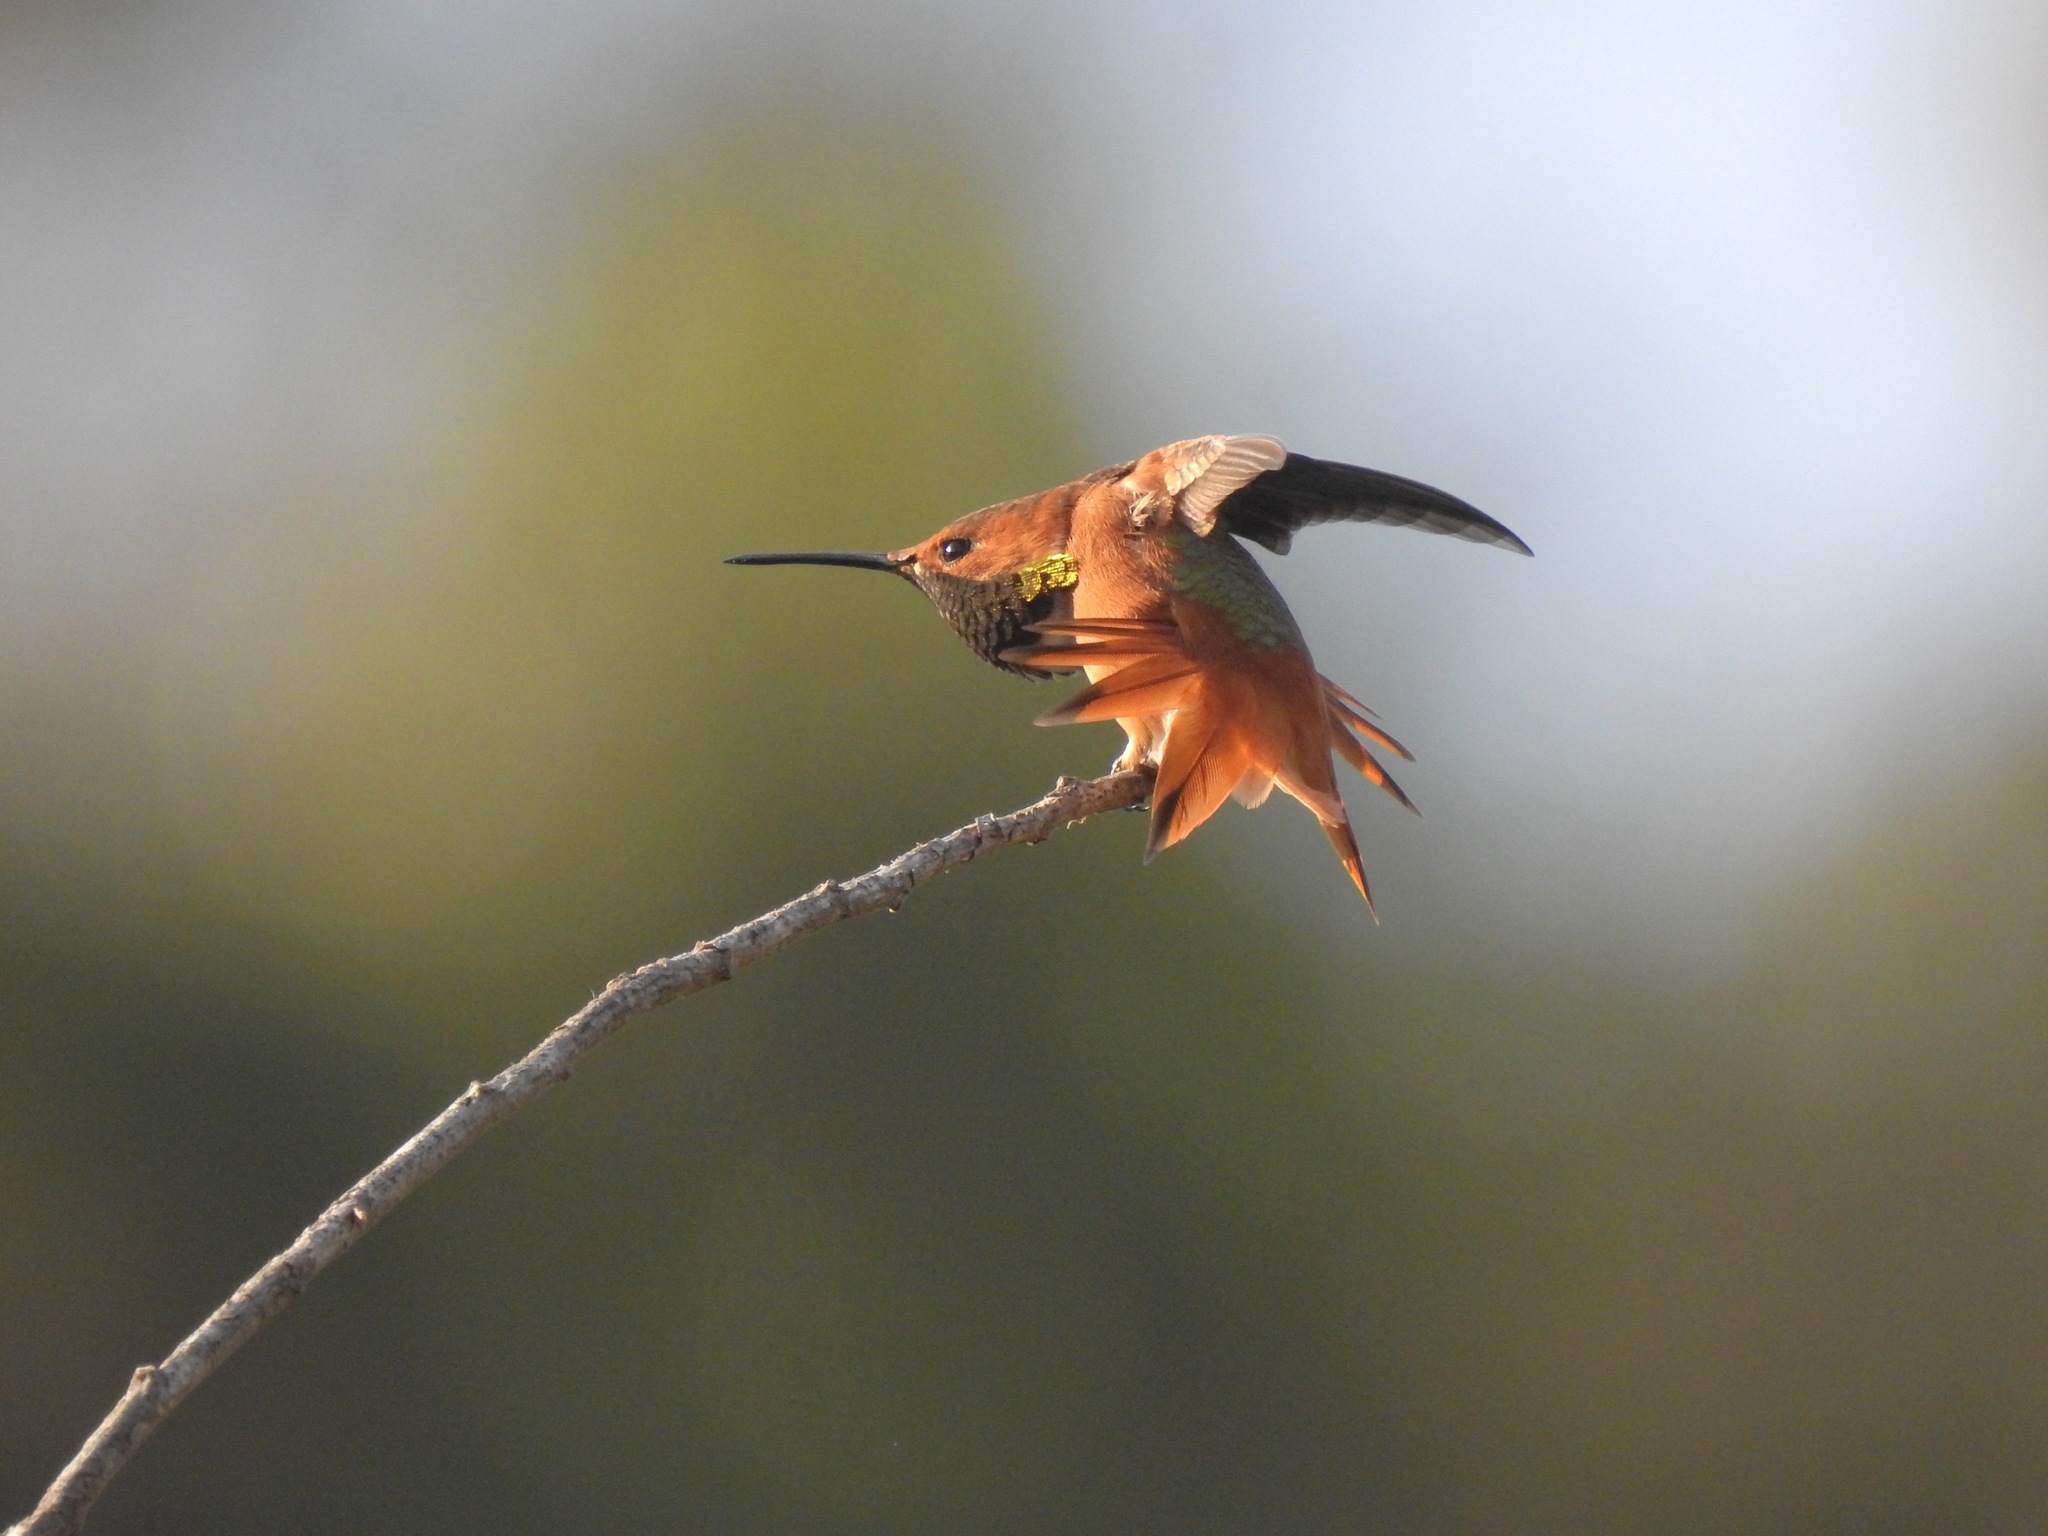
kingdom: Animalia
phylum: Chordata
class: Aves
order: Apodiformes
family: Trochilidae
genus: Selasphorus
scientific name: Selasphorus sasin
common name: Allen's hummingbird
